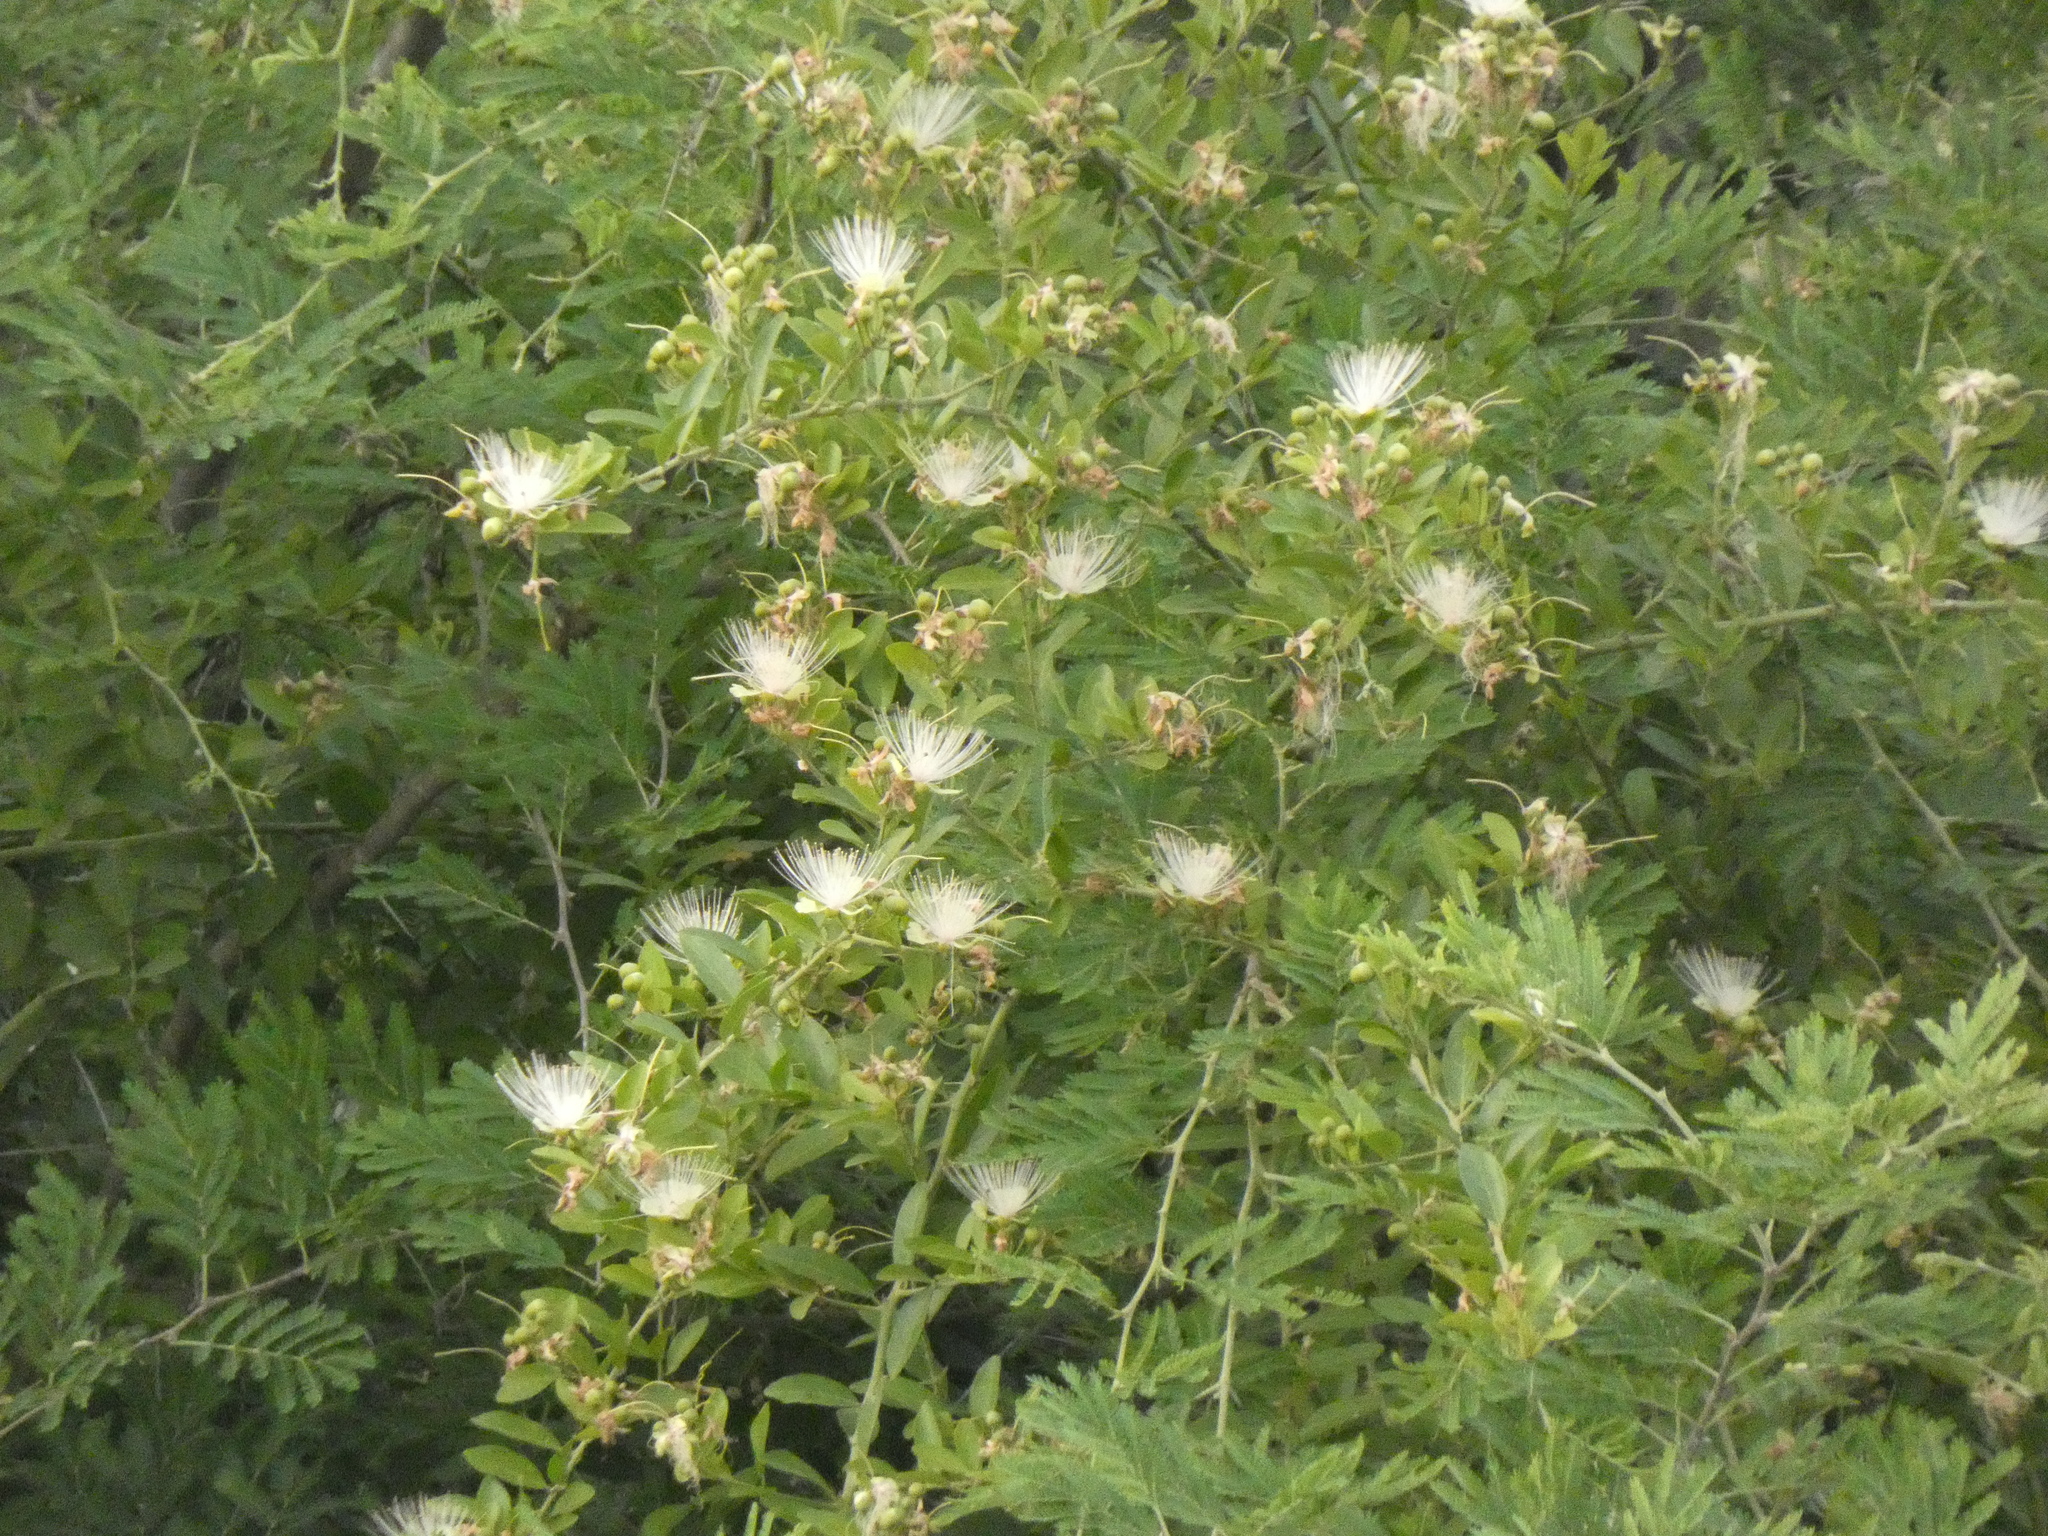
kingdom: Plantae
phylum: Tracheophyta
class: Magnoliopsida
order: Brassicales
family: Capparaceae
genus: Capparis
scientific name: Capparis tomentosa
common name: African caper
